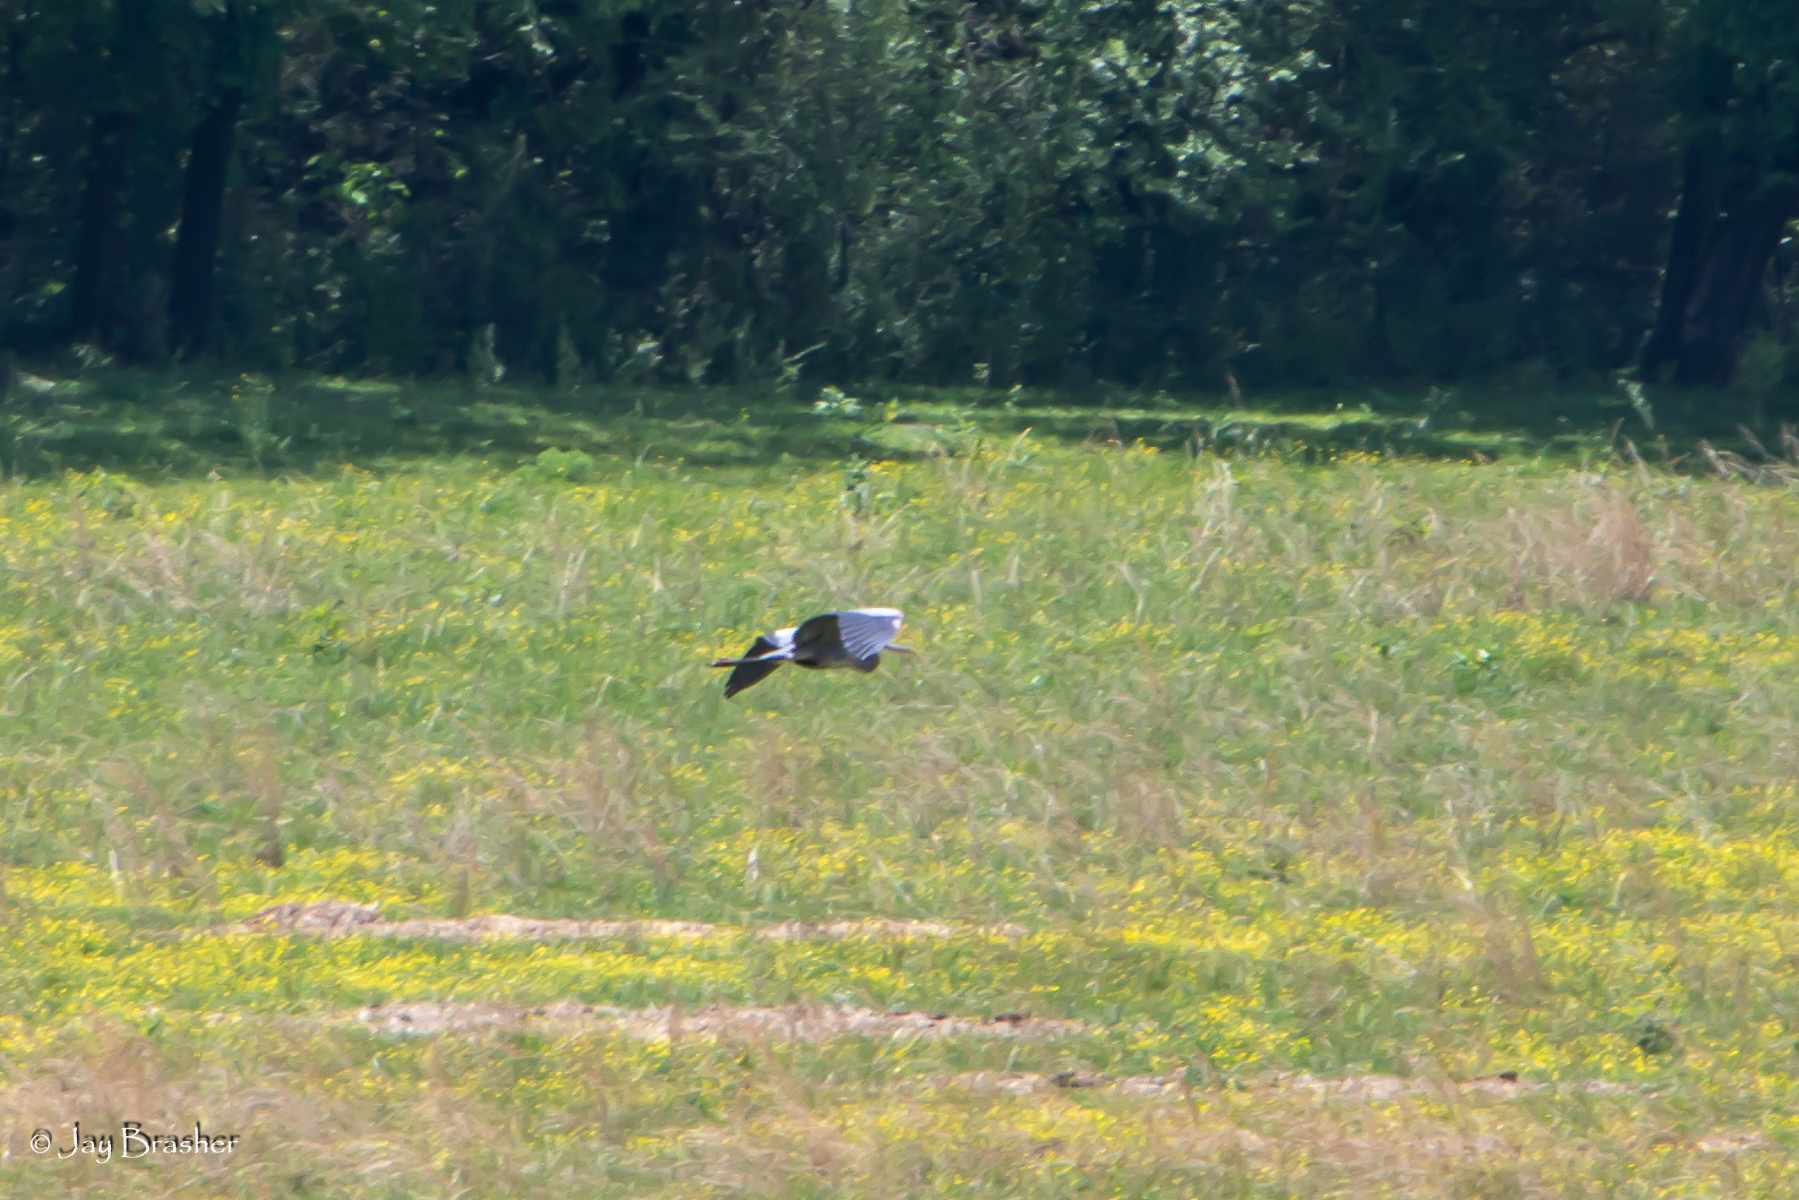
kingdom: Animalia
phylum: Chordata
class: Aves
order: Pelecaniformes
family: Ardeidae
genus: Ardea
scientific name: Ardea herodias
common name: Great blue heron
